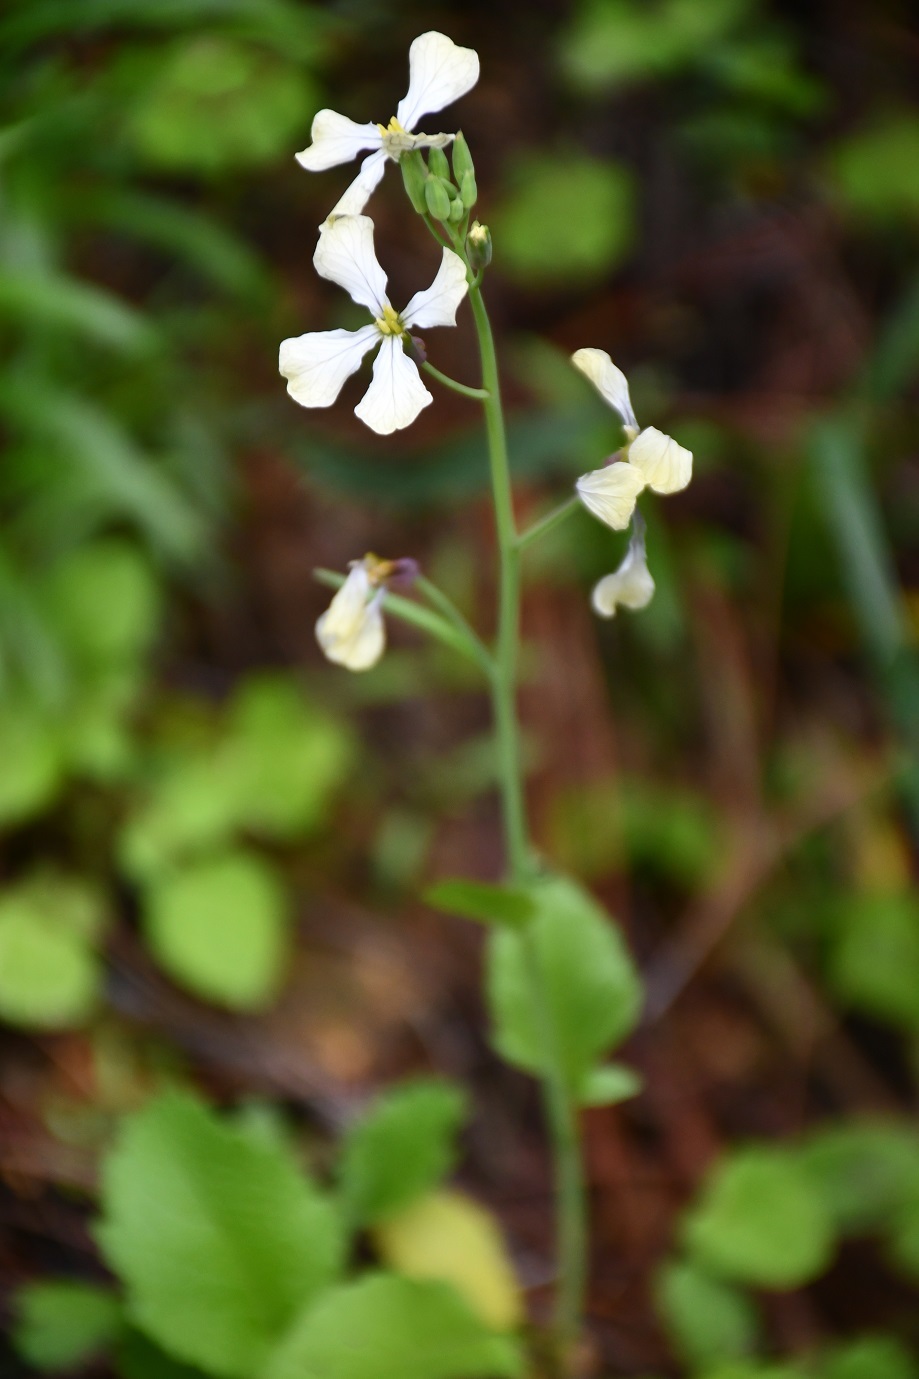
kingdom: Plantae
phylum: Tracheophyta
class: Magnoliopsida
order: Brassicales
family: Brassicaceae
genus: Eruca
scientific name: Eruca vesicaria
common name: Garden rocket
